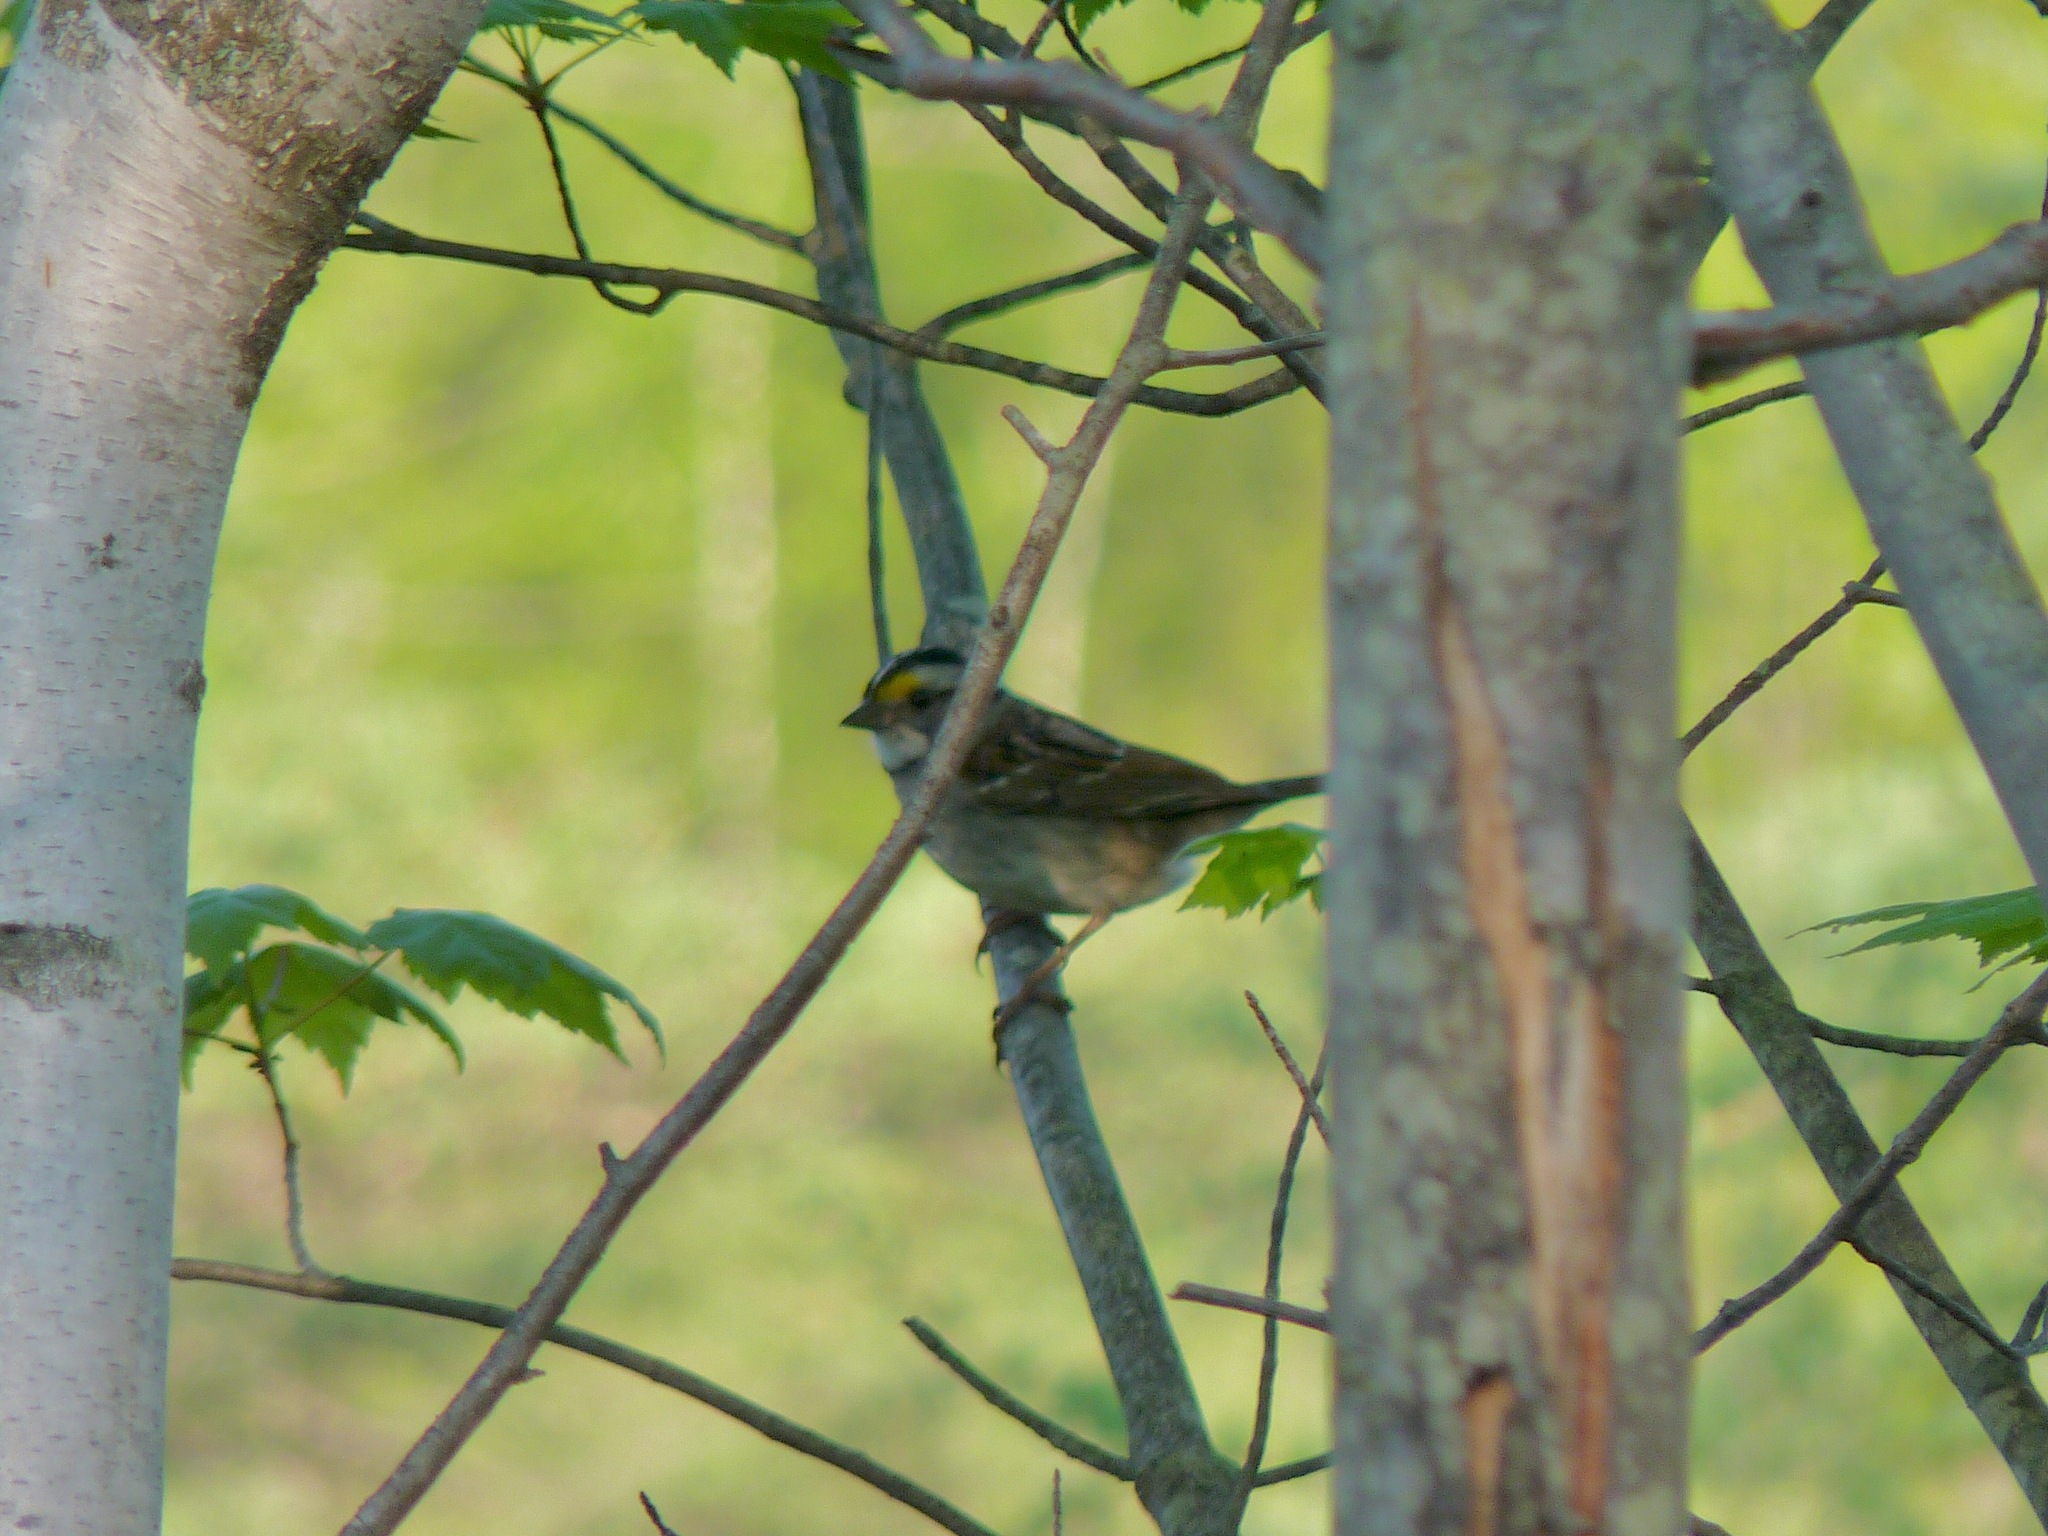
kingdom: Animalia
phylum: Chordata
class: Aves
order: Passeriformes
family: Passerellidae
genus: Zonotrichia
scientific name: Zonotrichia albicollis
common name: White-throated sparrow
